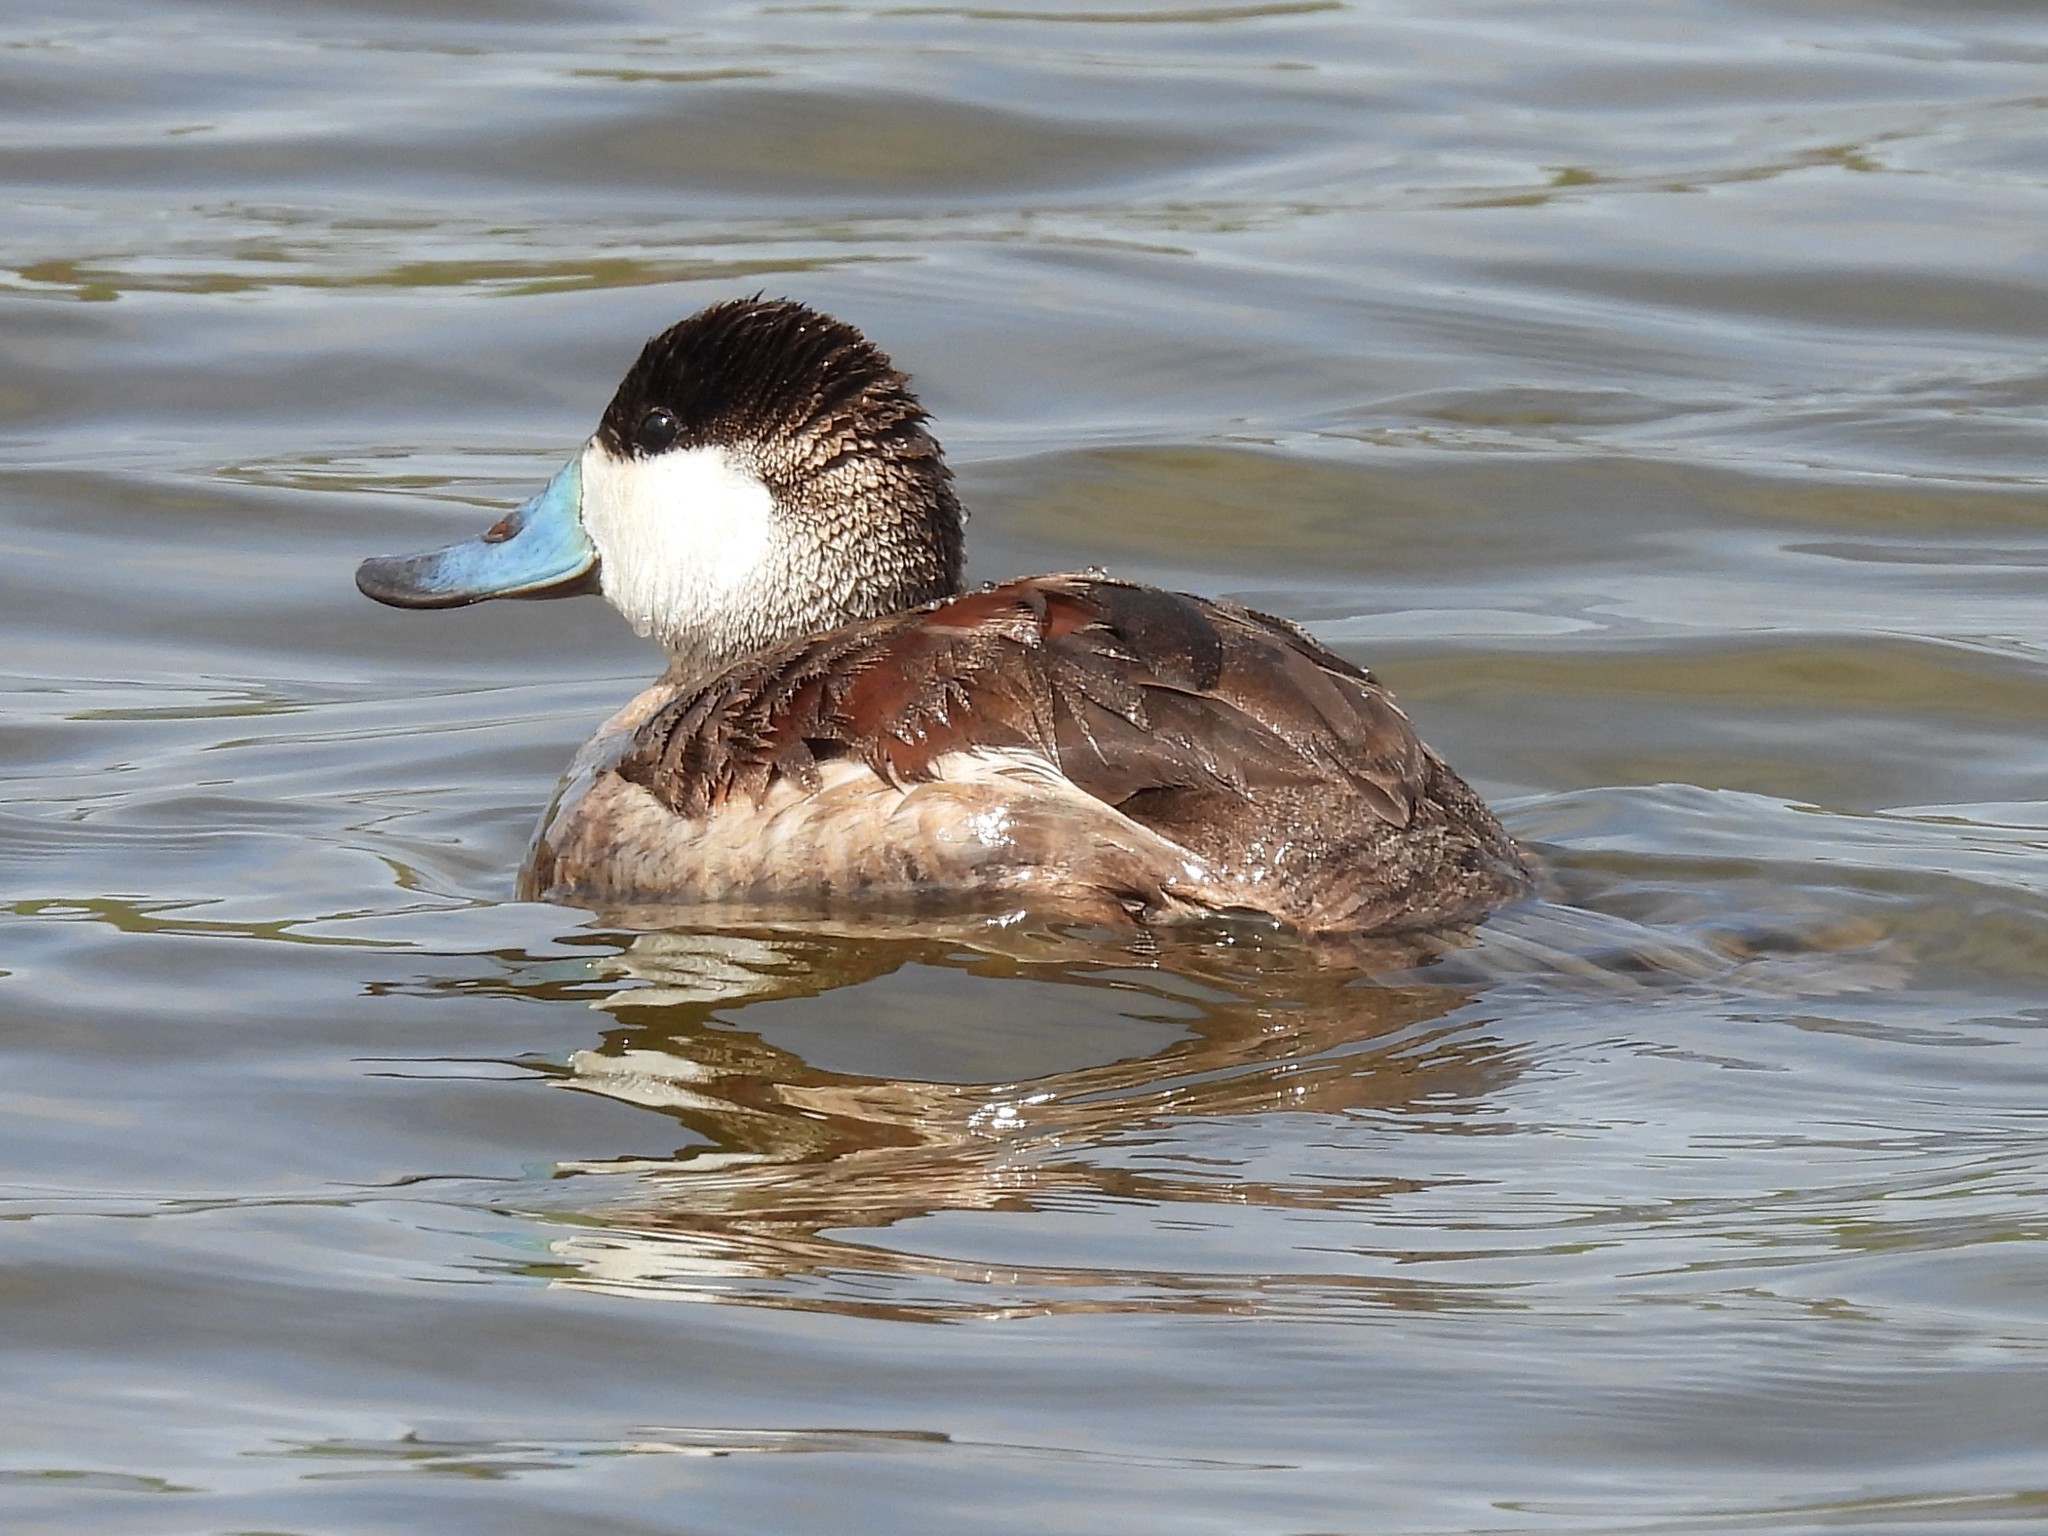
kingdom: Animalia
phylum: Chordata
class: Aves
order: Anseriformes
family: Anatidae
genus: Oxyura
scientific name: Oxyura jamaicensis
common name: Ruddy duck
